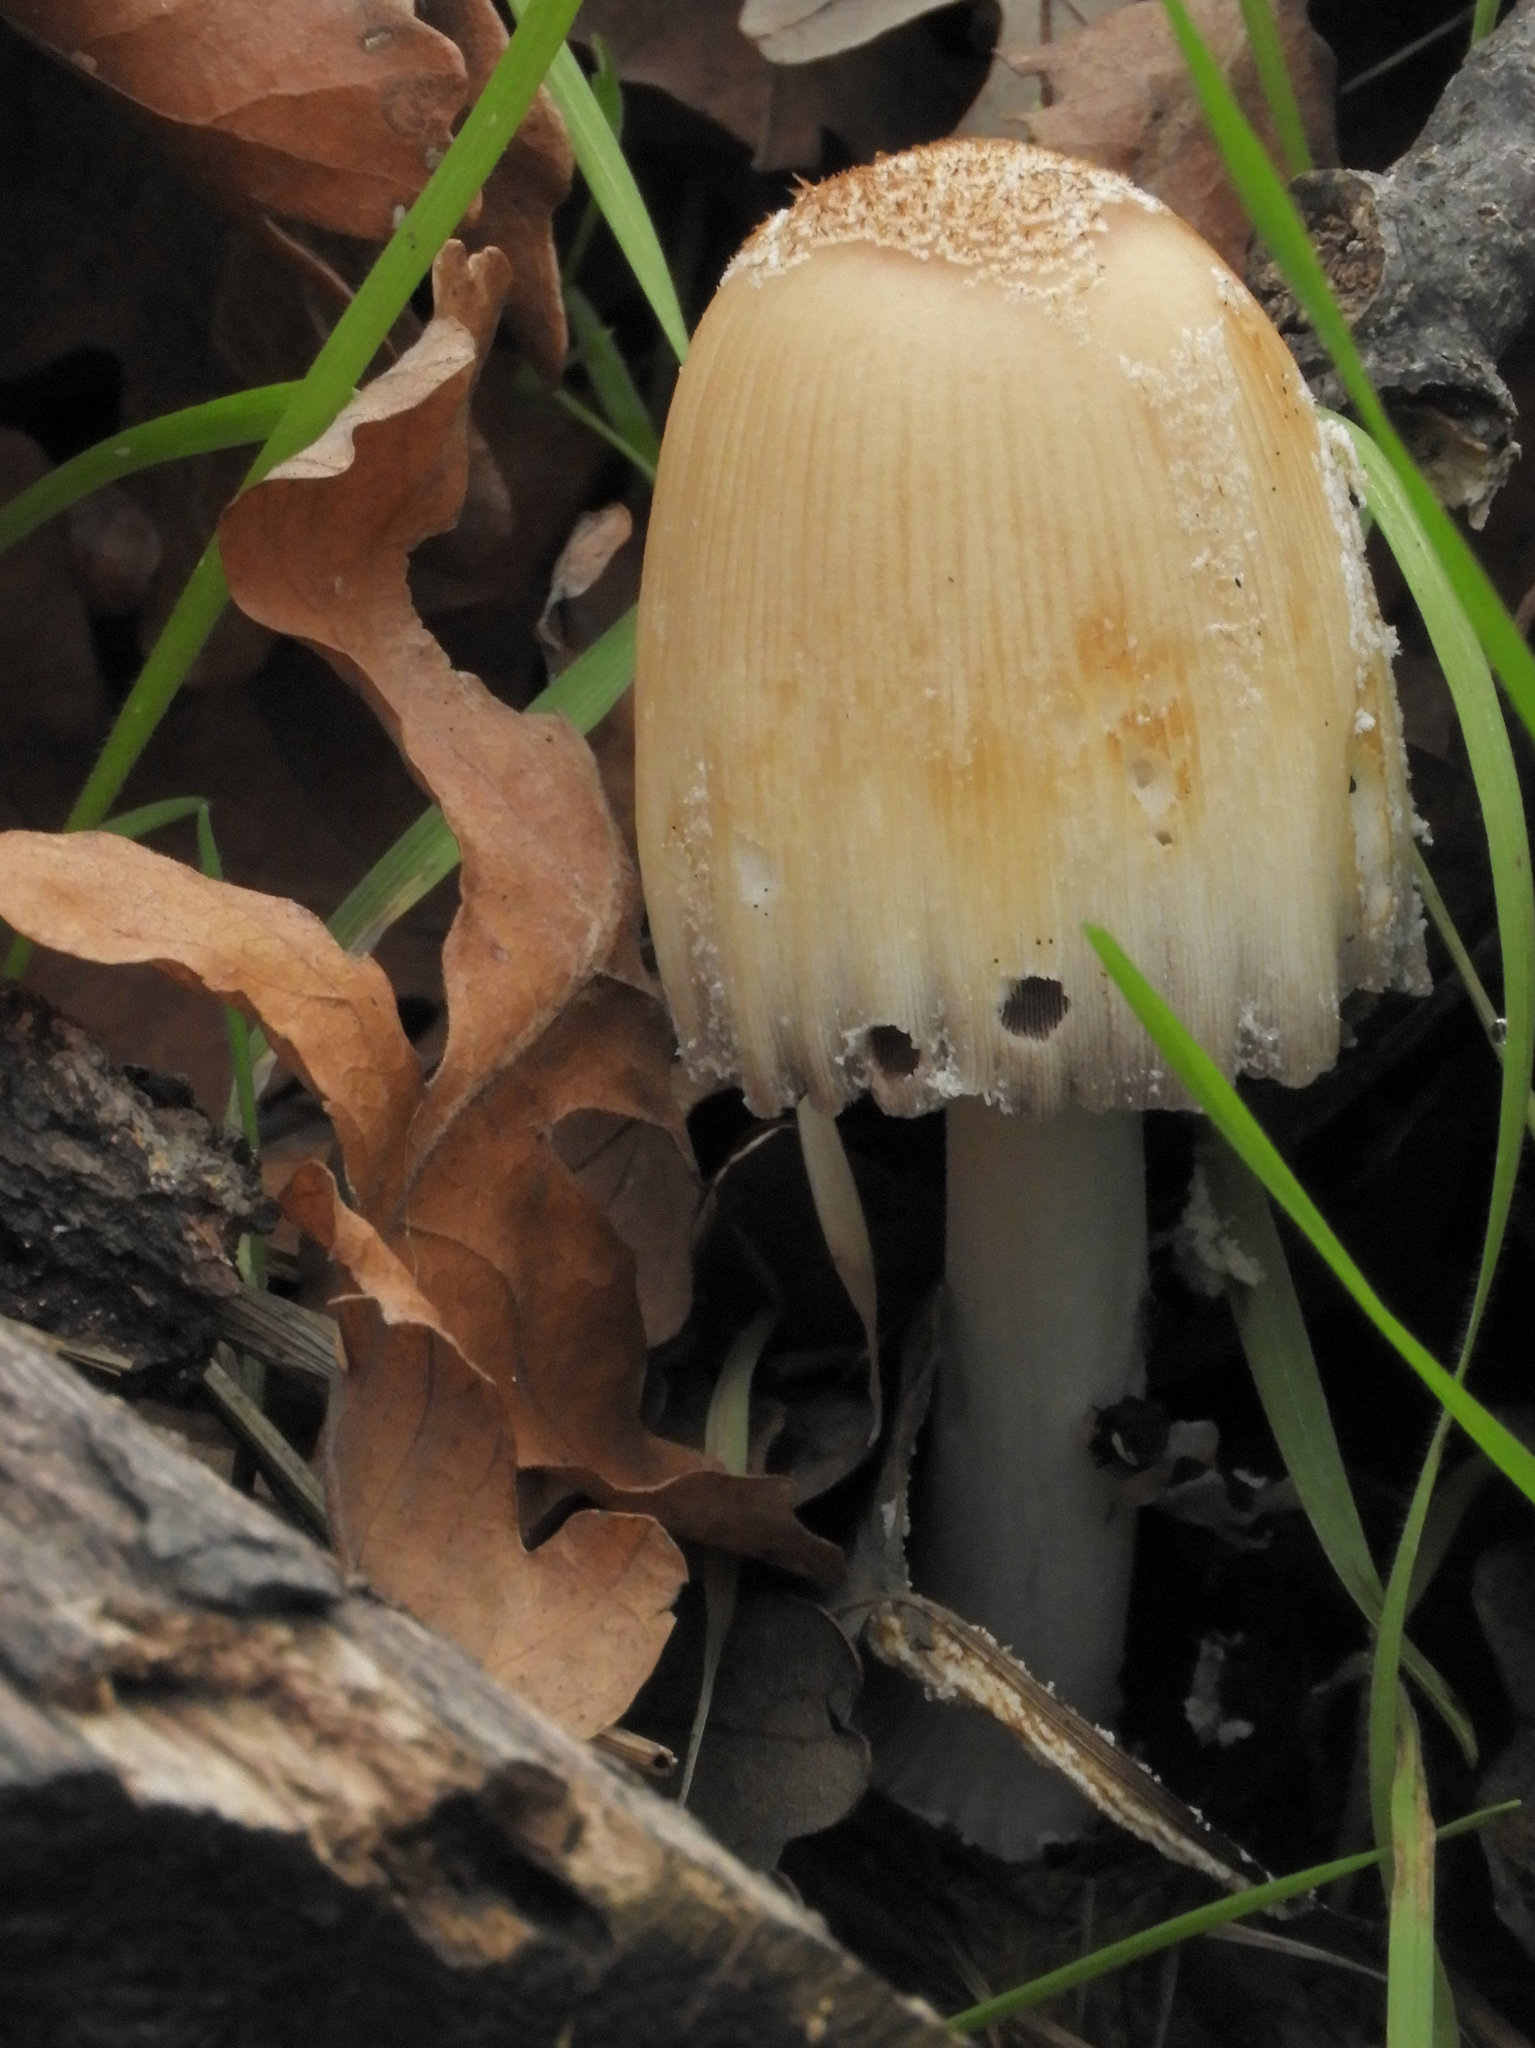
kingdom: Fungi
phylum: Basidiomycota
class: Agaricomycetes
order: Agaricales
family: Psathyrellaceae
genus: Coprinellus
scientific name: Coprinellus micaceus
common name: Glistening ink-cap
